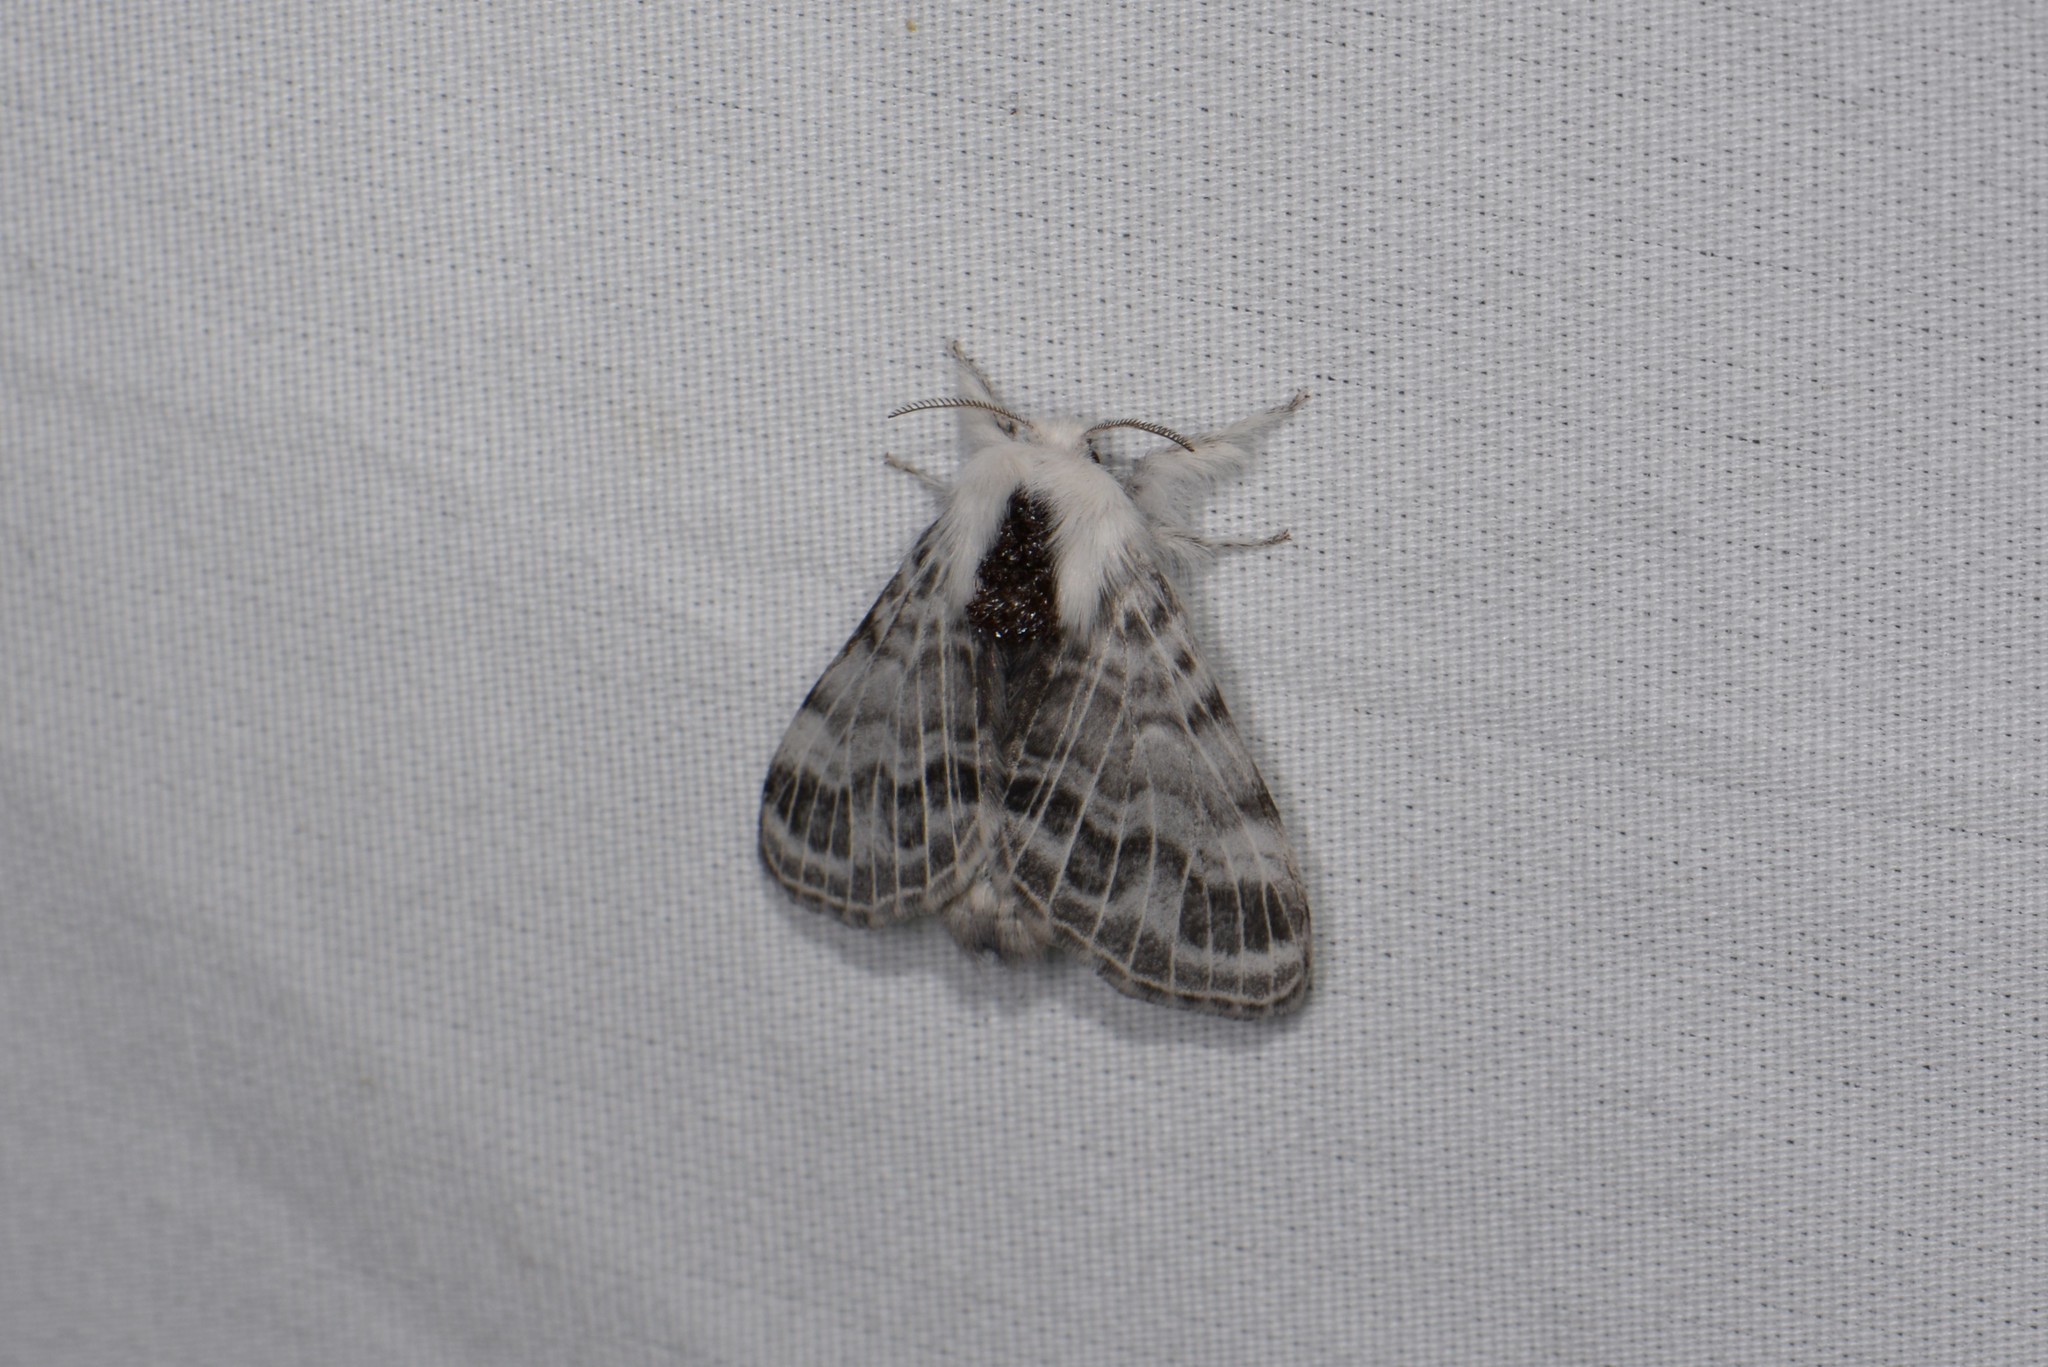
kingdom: Animalia
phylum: Arthropoda
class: Insecta
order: Lepidoptera
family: Lasiocampidae
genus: Tolype
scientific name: Tolype velleda
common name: Large tolype moth
